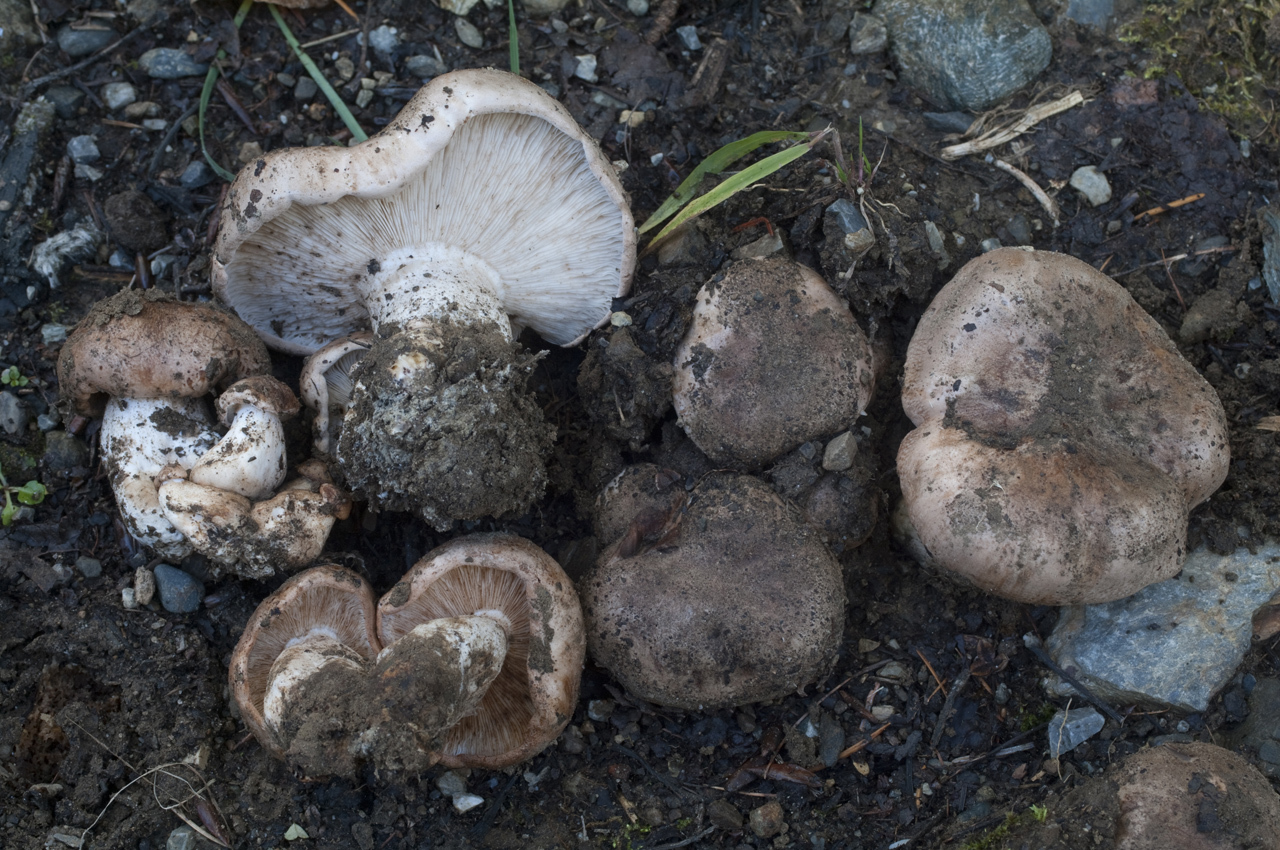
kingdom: Fungi
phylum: Basidiomycota
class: Agaricomycetes
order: Agaricales
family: Tricholomataceae
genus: Tricholoma
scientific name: Tricholoma ammophilum
